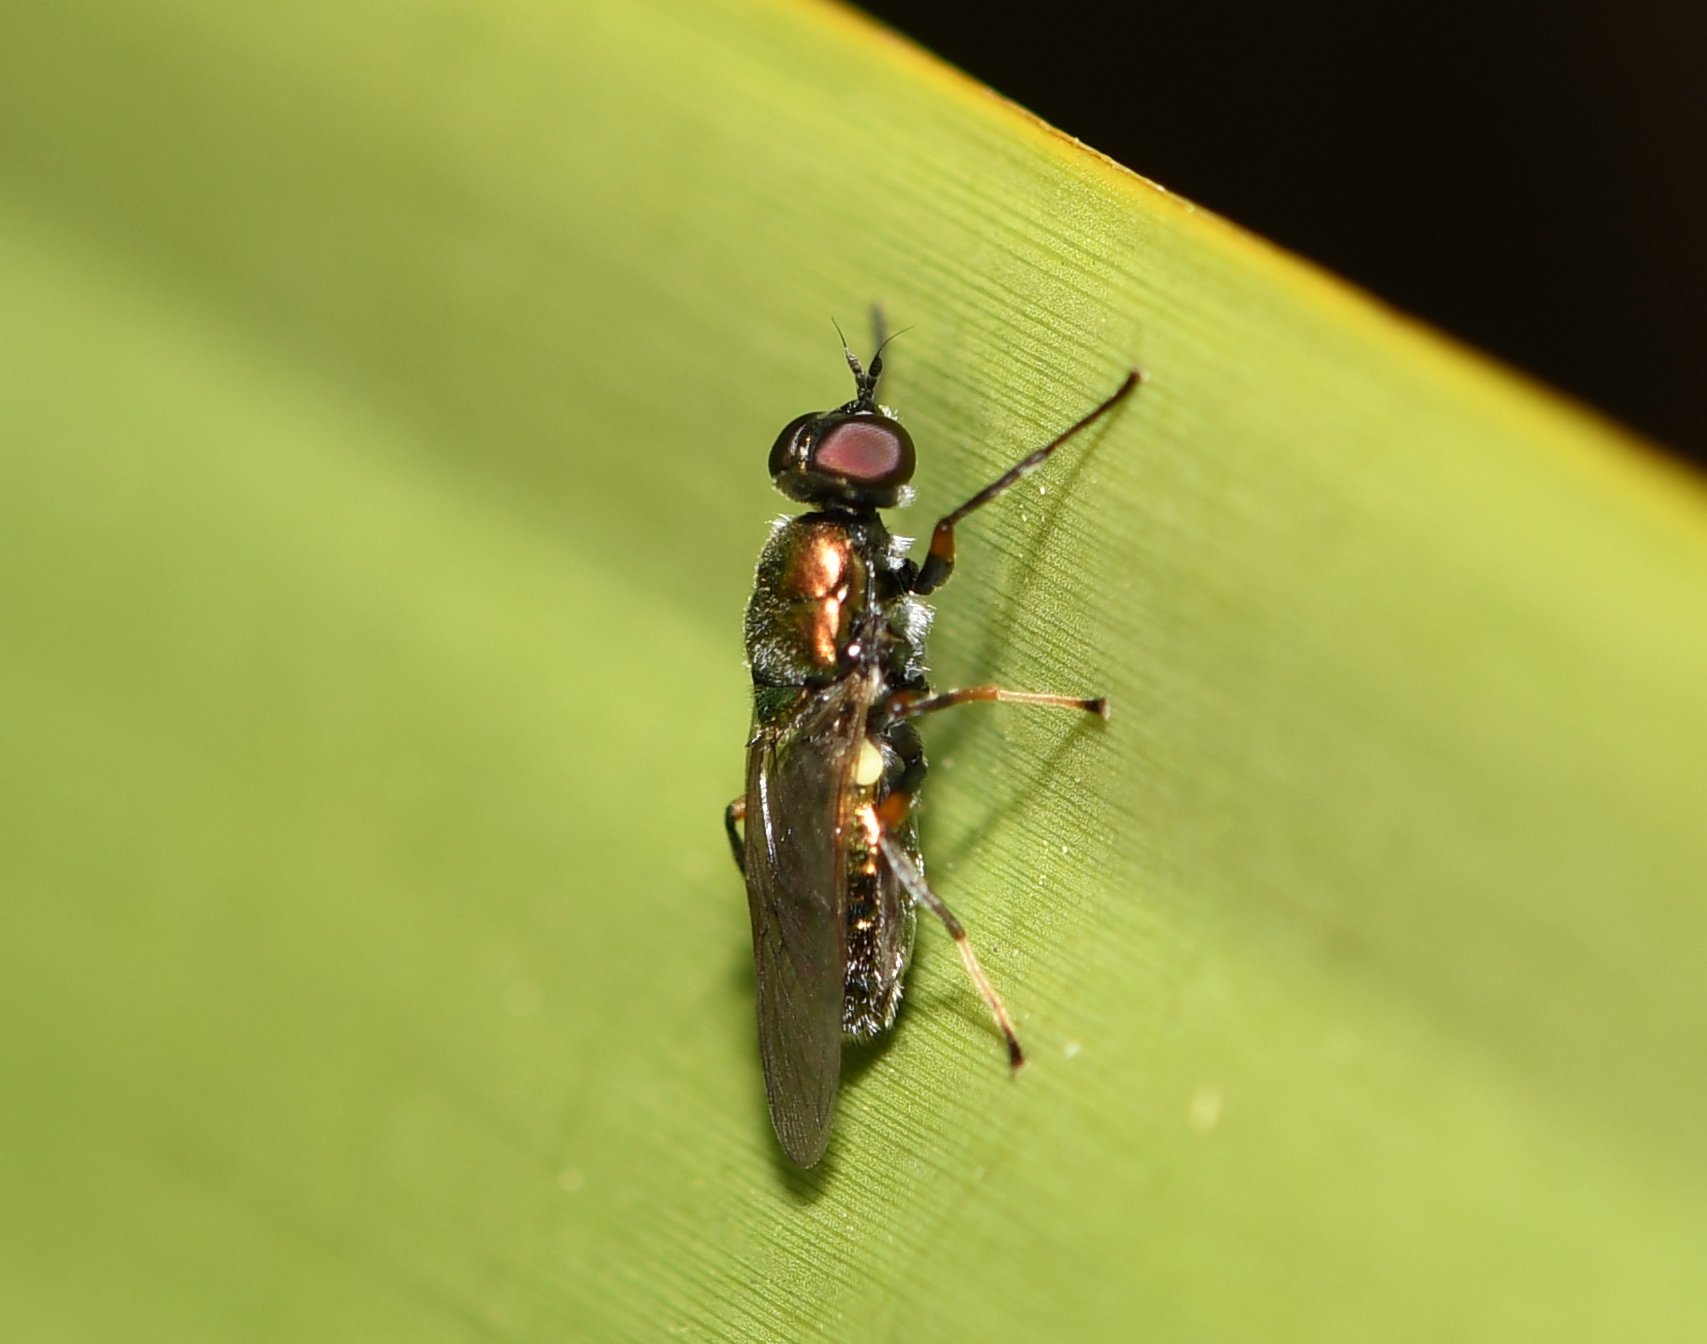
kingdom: Animalia
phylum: Arthropoda
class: Insecta
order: Diptera
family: Stratiomyidae
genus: Nothomyia
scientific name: Nothomyia calopus
